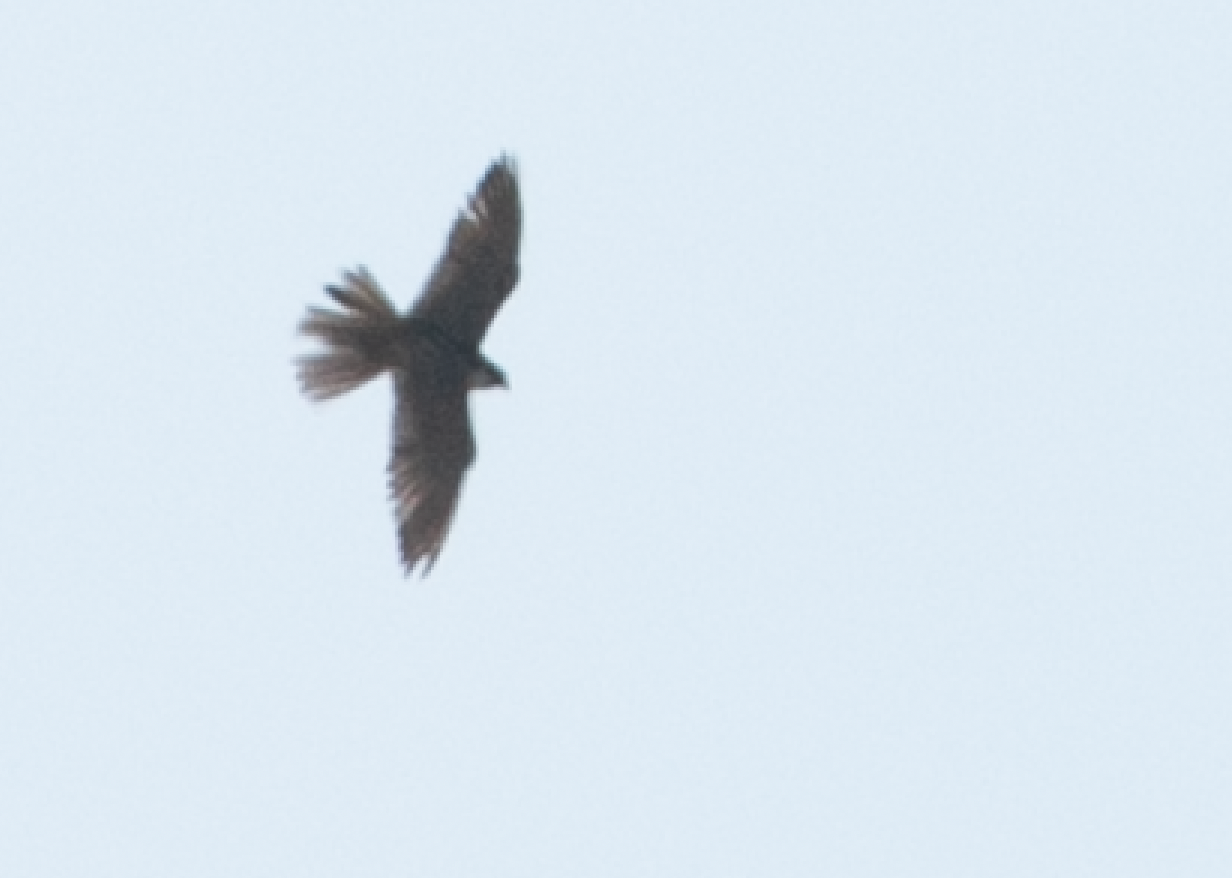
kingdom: Animalia
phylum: Chordata
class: Aves
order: Falconiformes
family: Falconidae
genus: Falco
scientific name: Falco subbuteo
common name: Eurasian hobby
